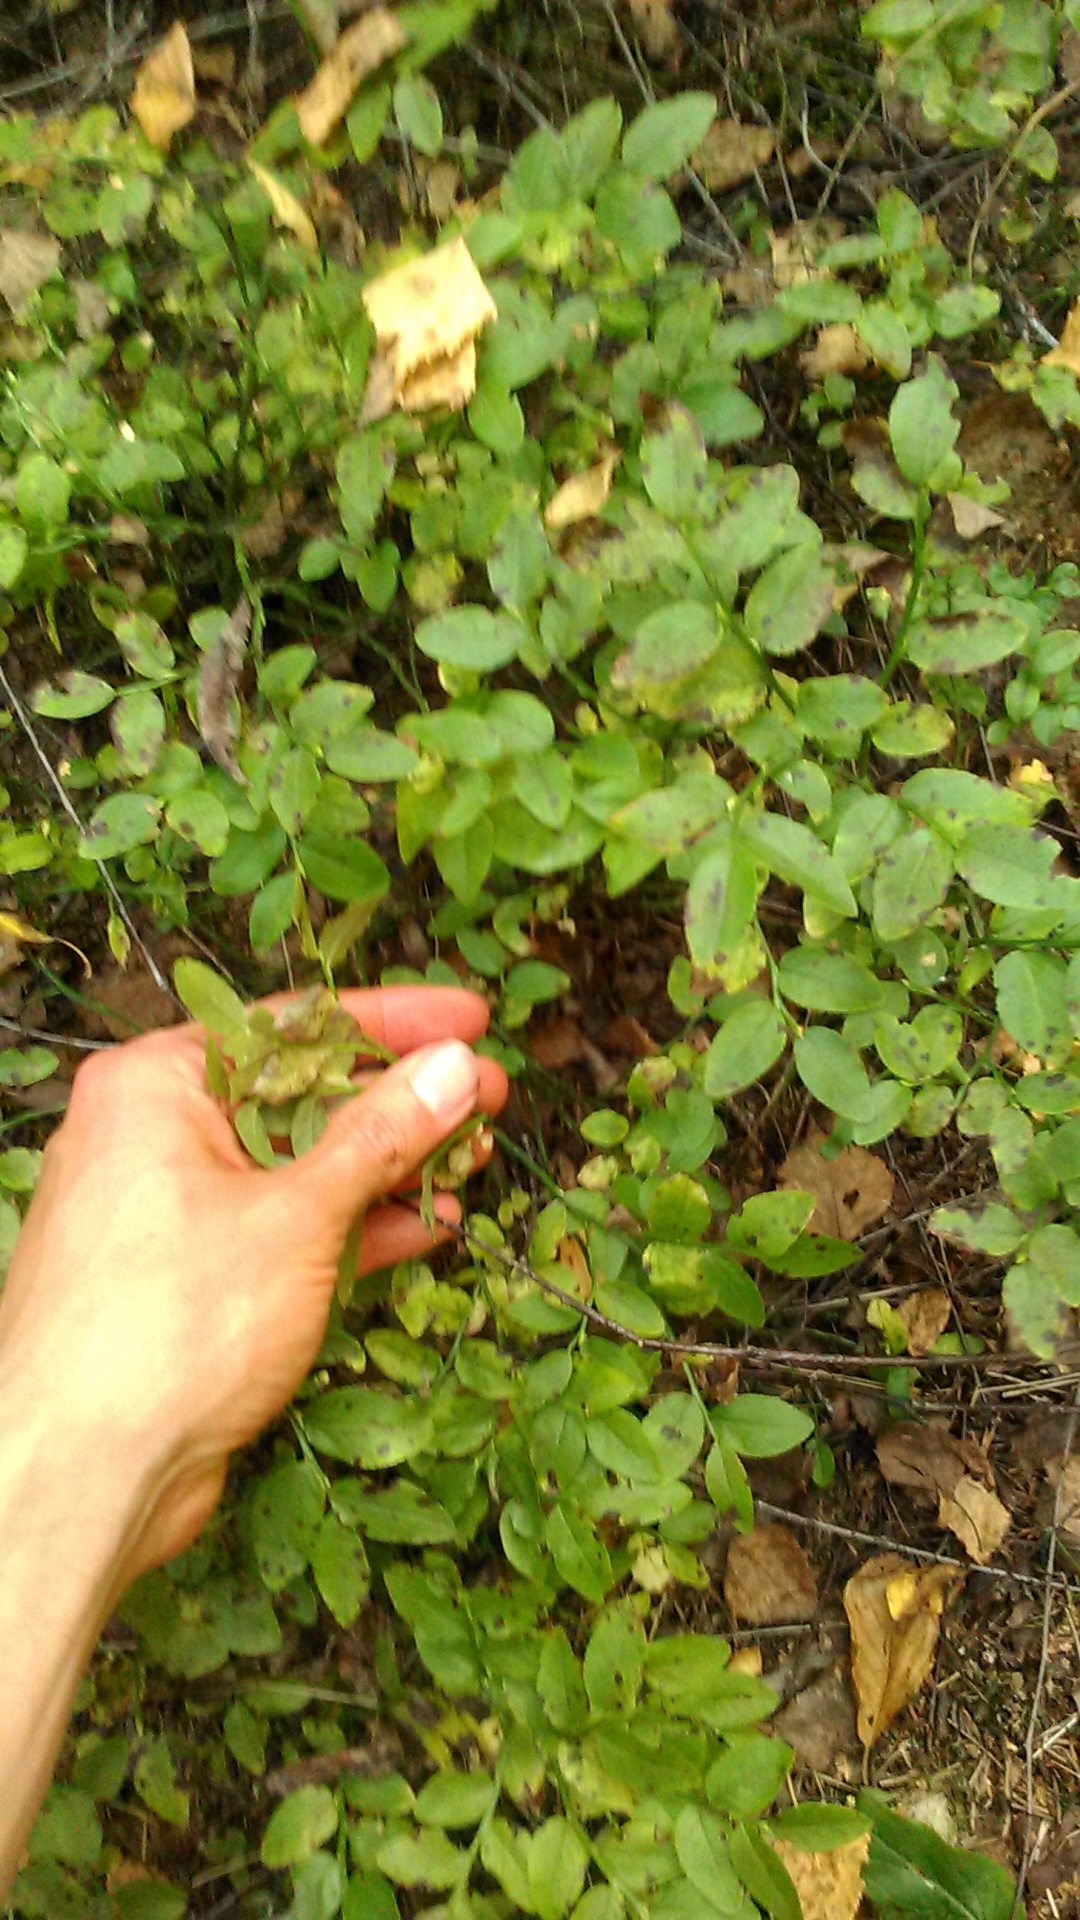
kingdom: Plantae
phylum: Tracheophyta
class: Magnoliopsida
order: Ericales
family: Ericaceae
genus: Vaccinium
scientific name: Vaccinium myrtillus
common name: Bilberry
